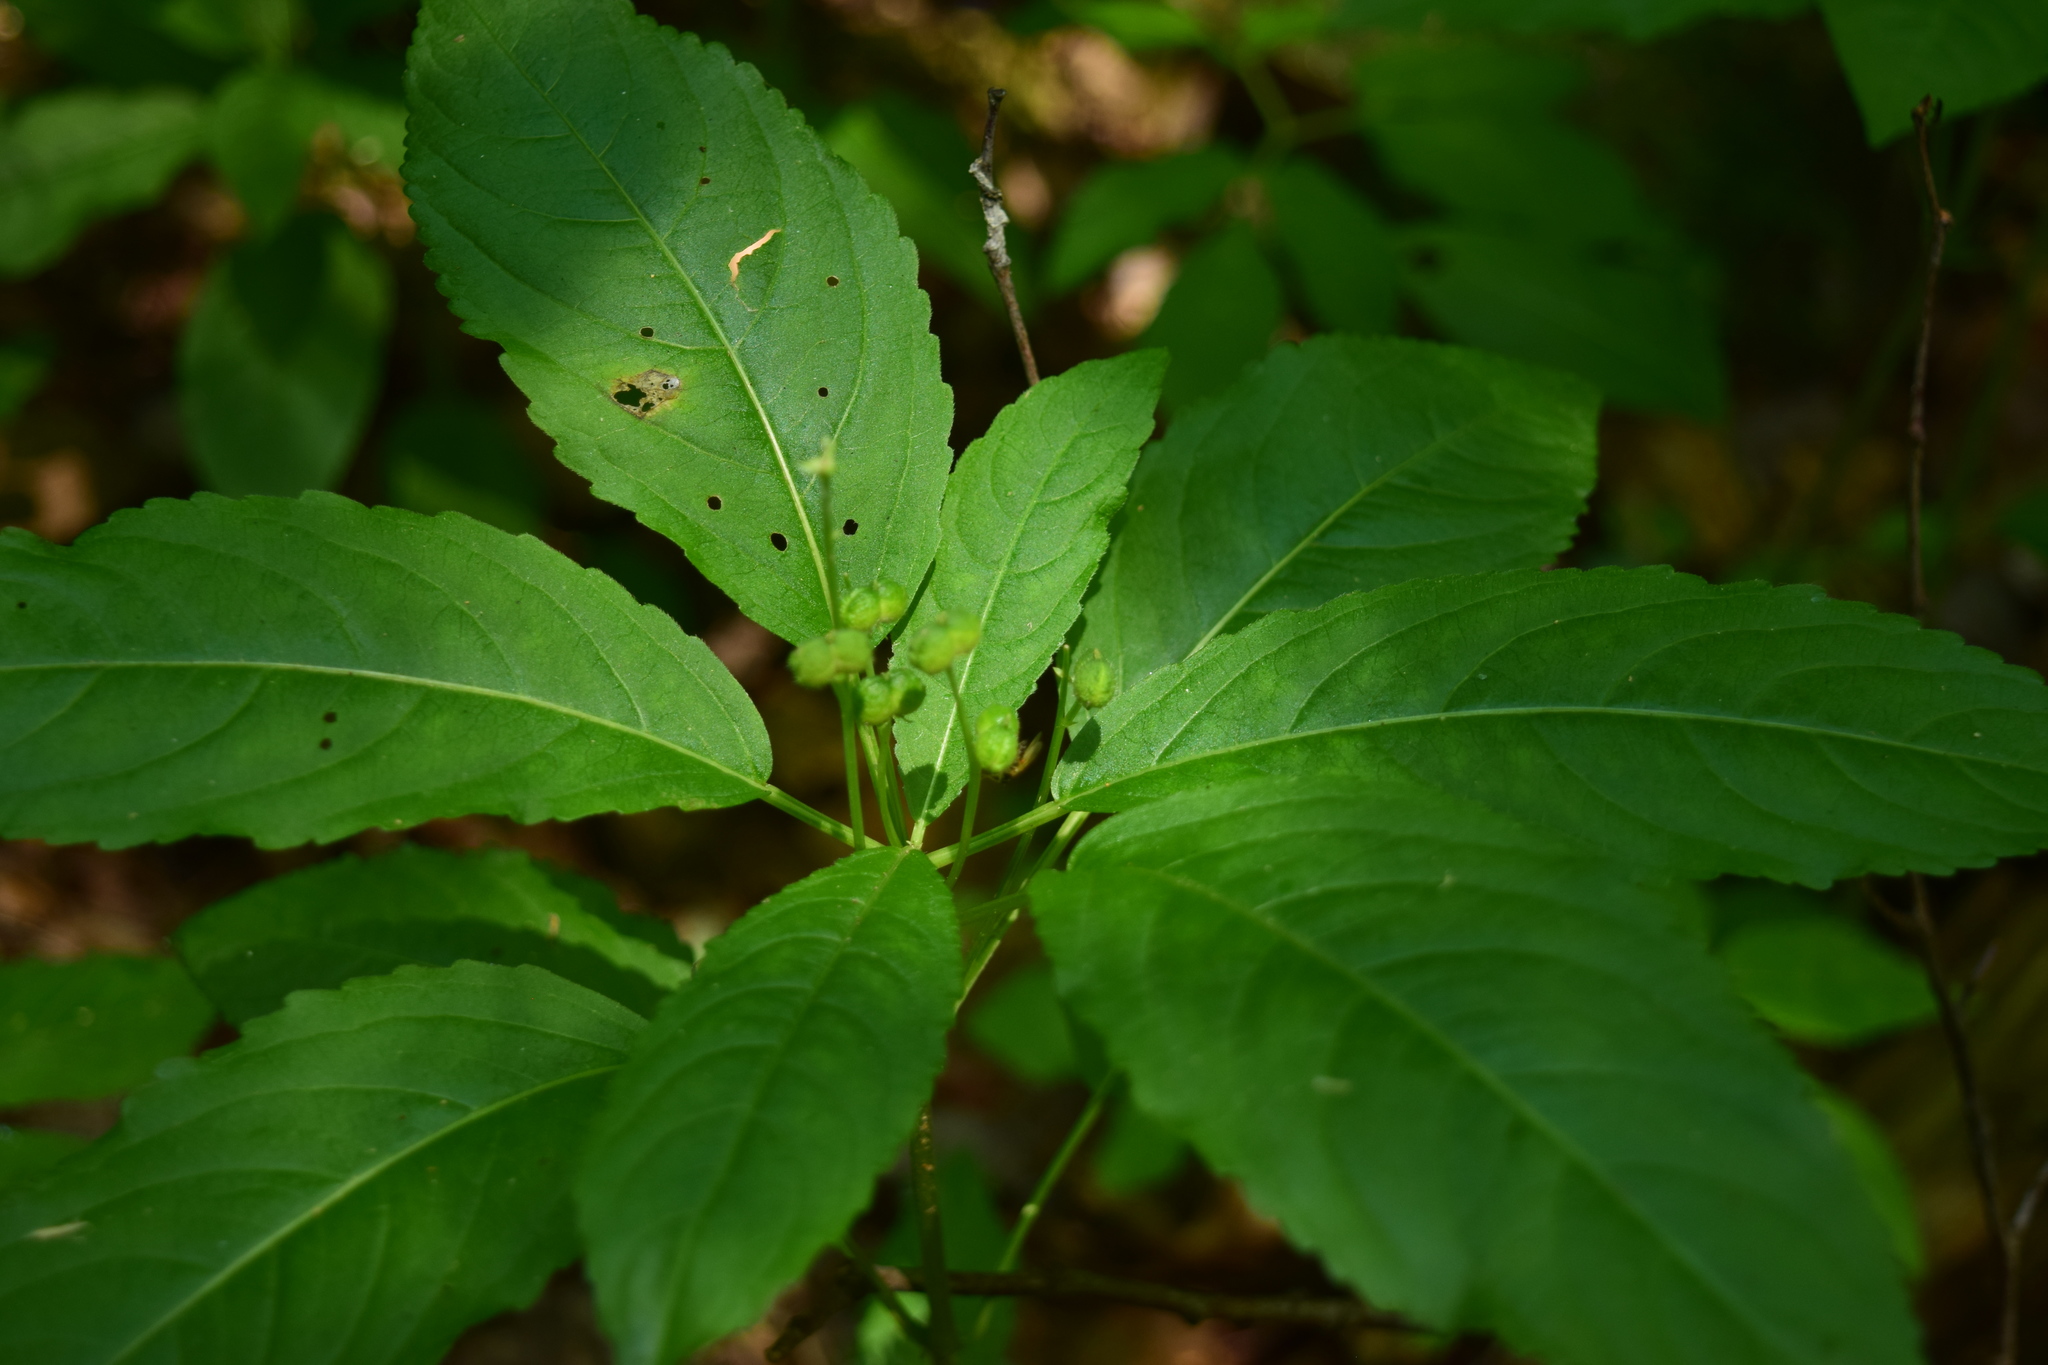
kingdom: Plantae
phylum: Tracheophyta
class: Magnoliopsida
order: Malpighiales
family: Euphorbiaceae
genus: Mercurialis
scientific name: Mercurialis perennis
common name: Dog mercury
